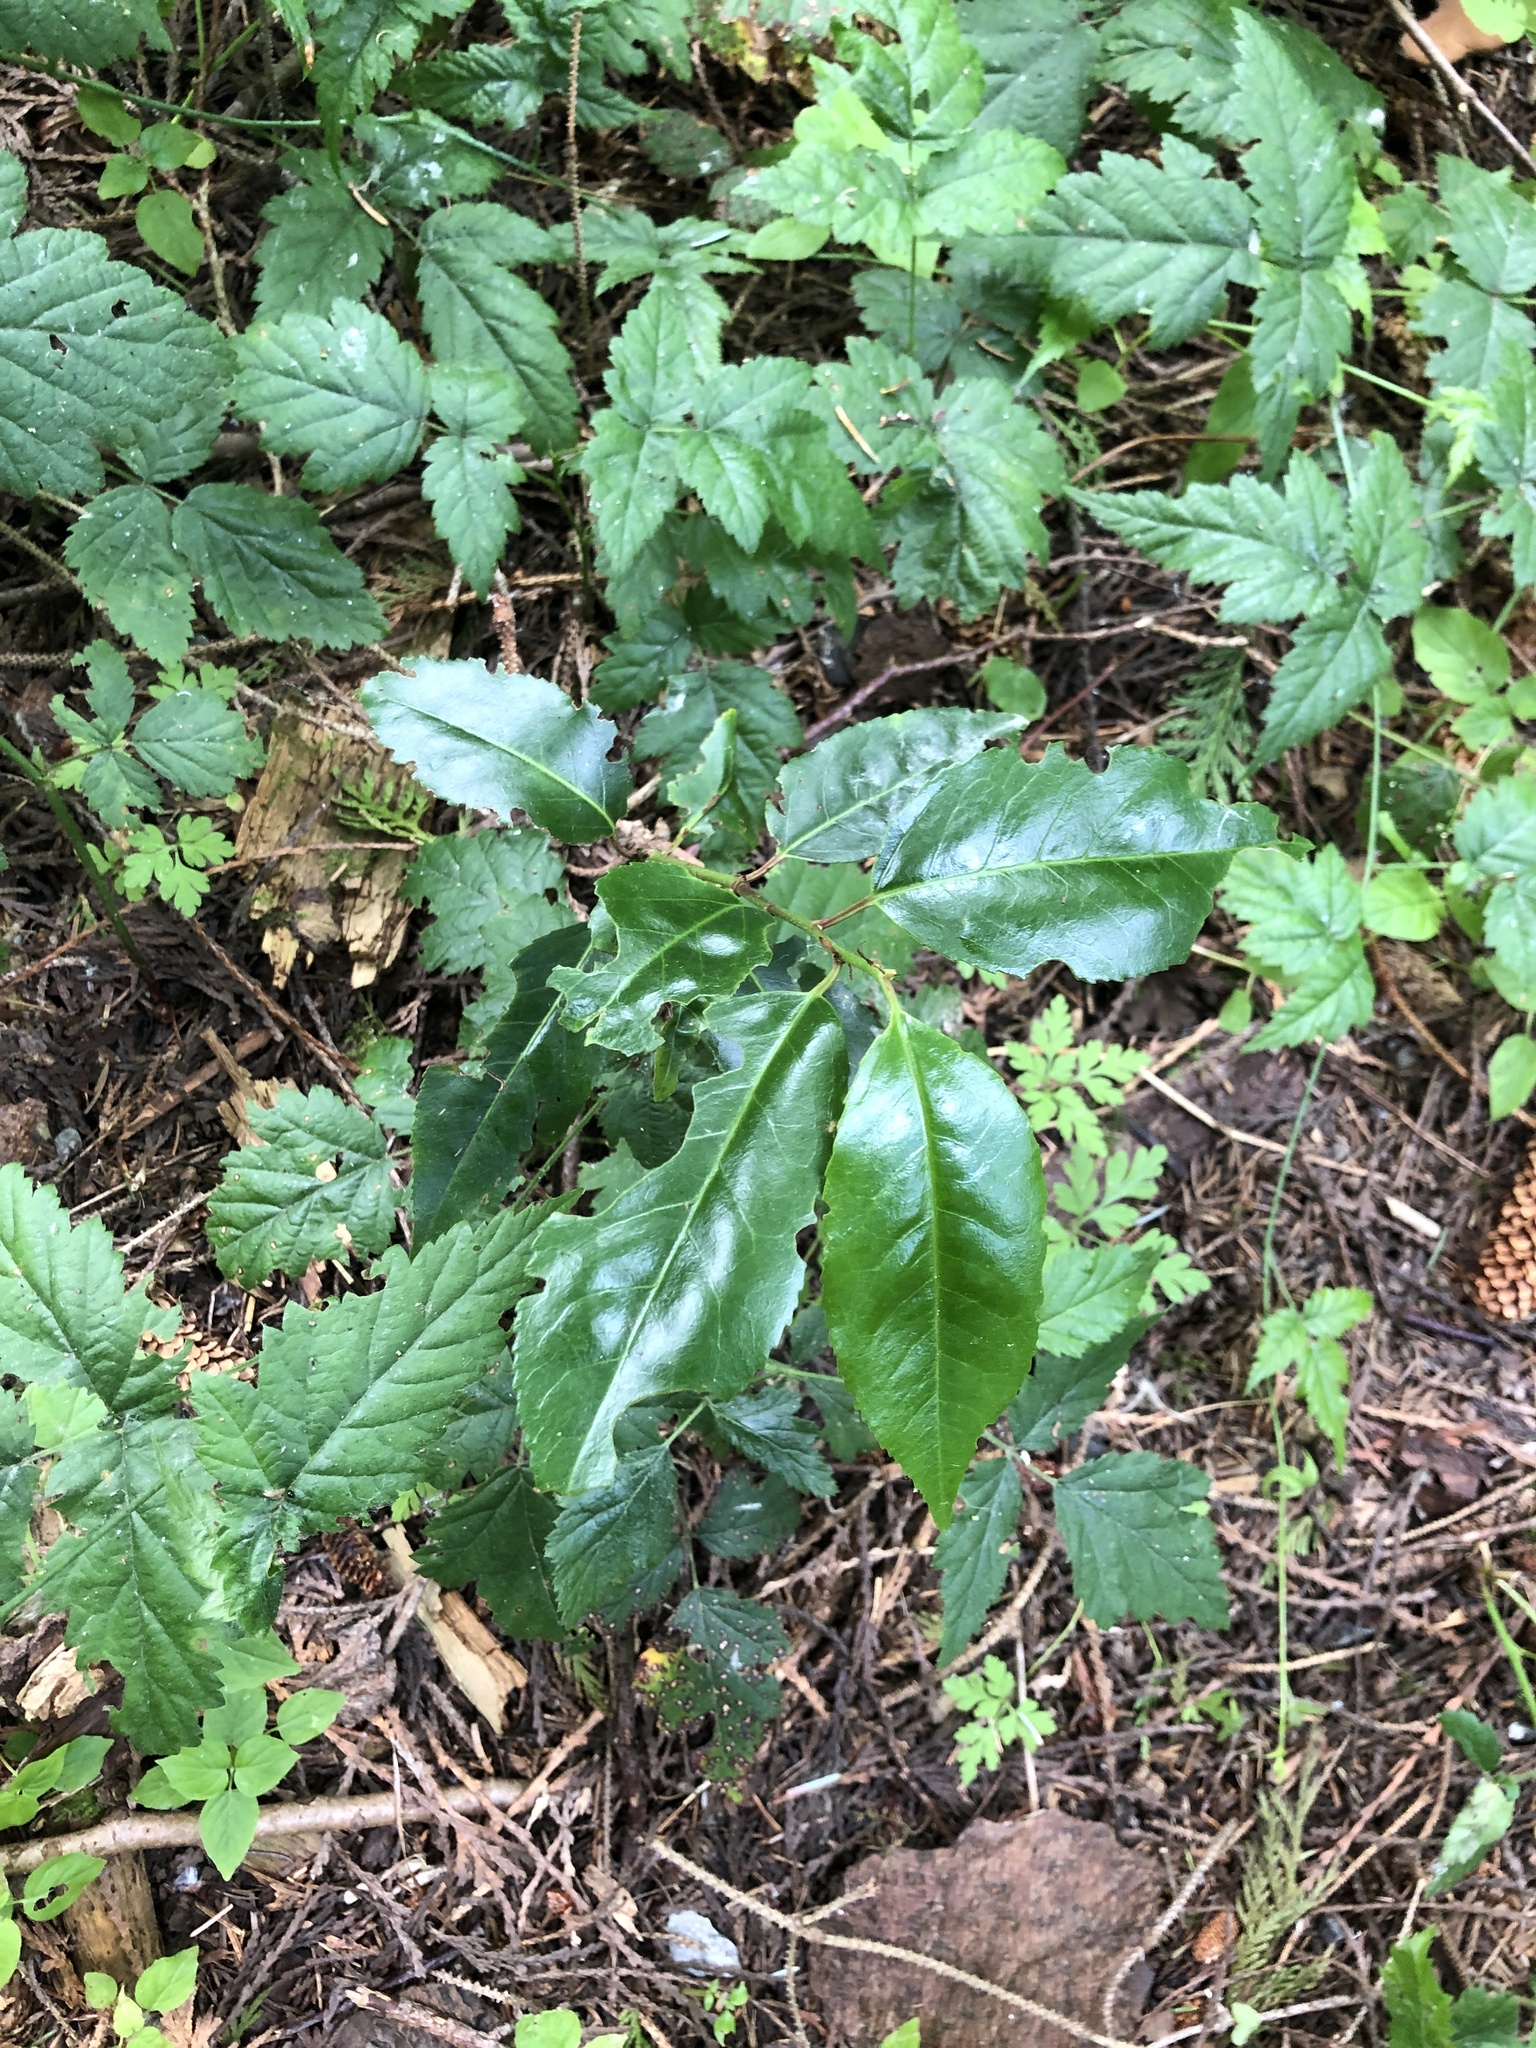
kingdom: Plantae
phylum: Tracheophyta
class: Magnoliopsida
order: Rosales
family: Rosaceae
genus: Prunus
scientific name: Prunus lusitanica
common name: Portugal laurel
